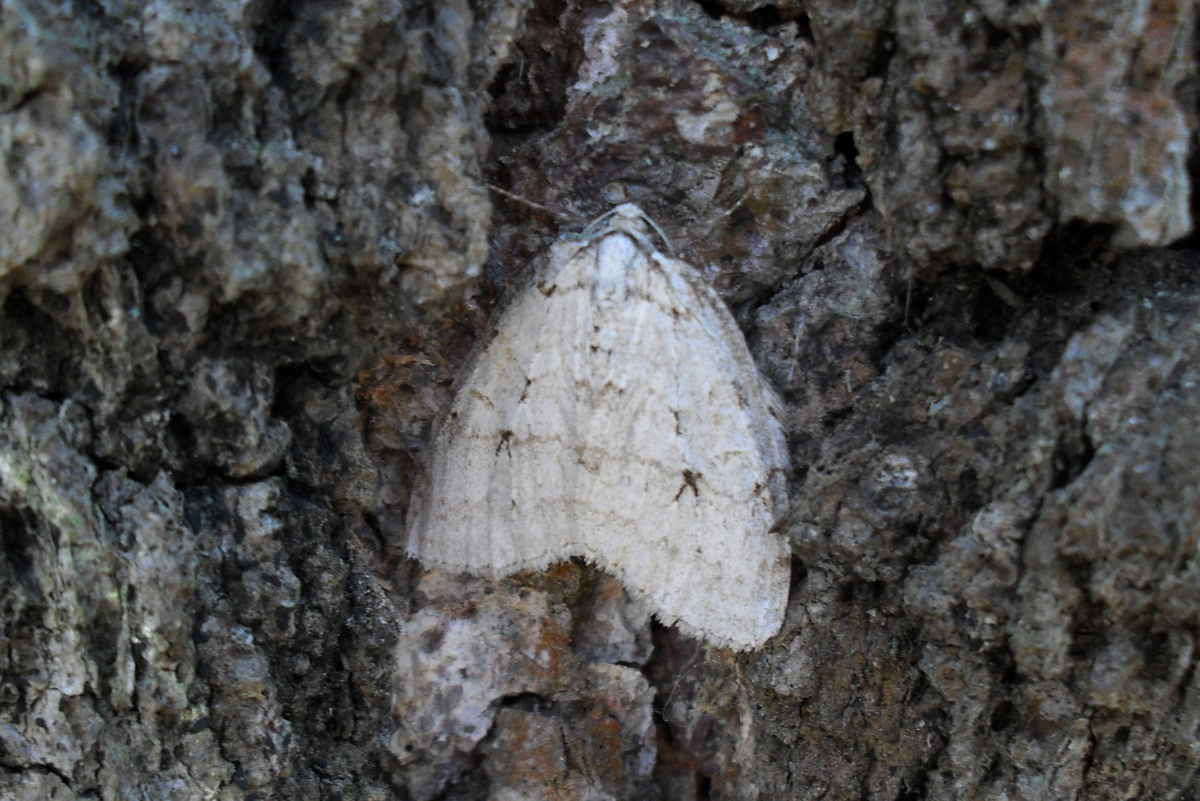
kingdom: Animalia
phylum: Arthropoda
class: Insecta
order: Lepidoptera
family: Geometridae
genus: Epirrita
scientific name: Epirrita autumnata
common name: Autumnal moth
